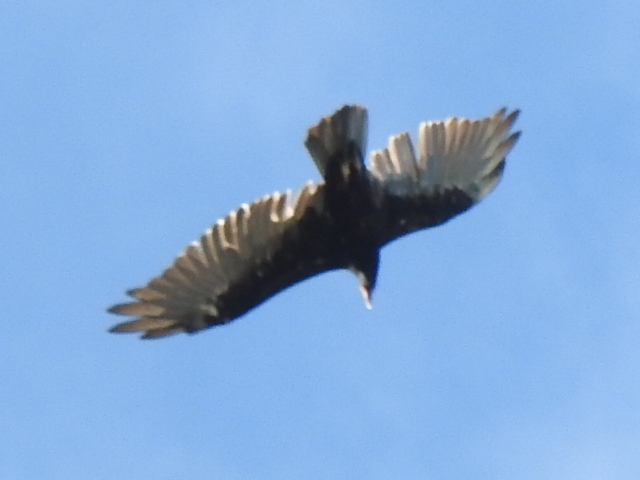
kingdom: Animalia
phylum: Chordata
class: Aves
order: Accipitriformes
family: Cathartidae
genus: Cathartes
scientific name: Cathartes aura
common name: Turkey vulture
